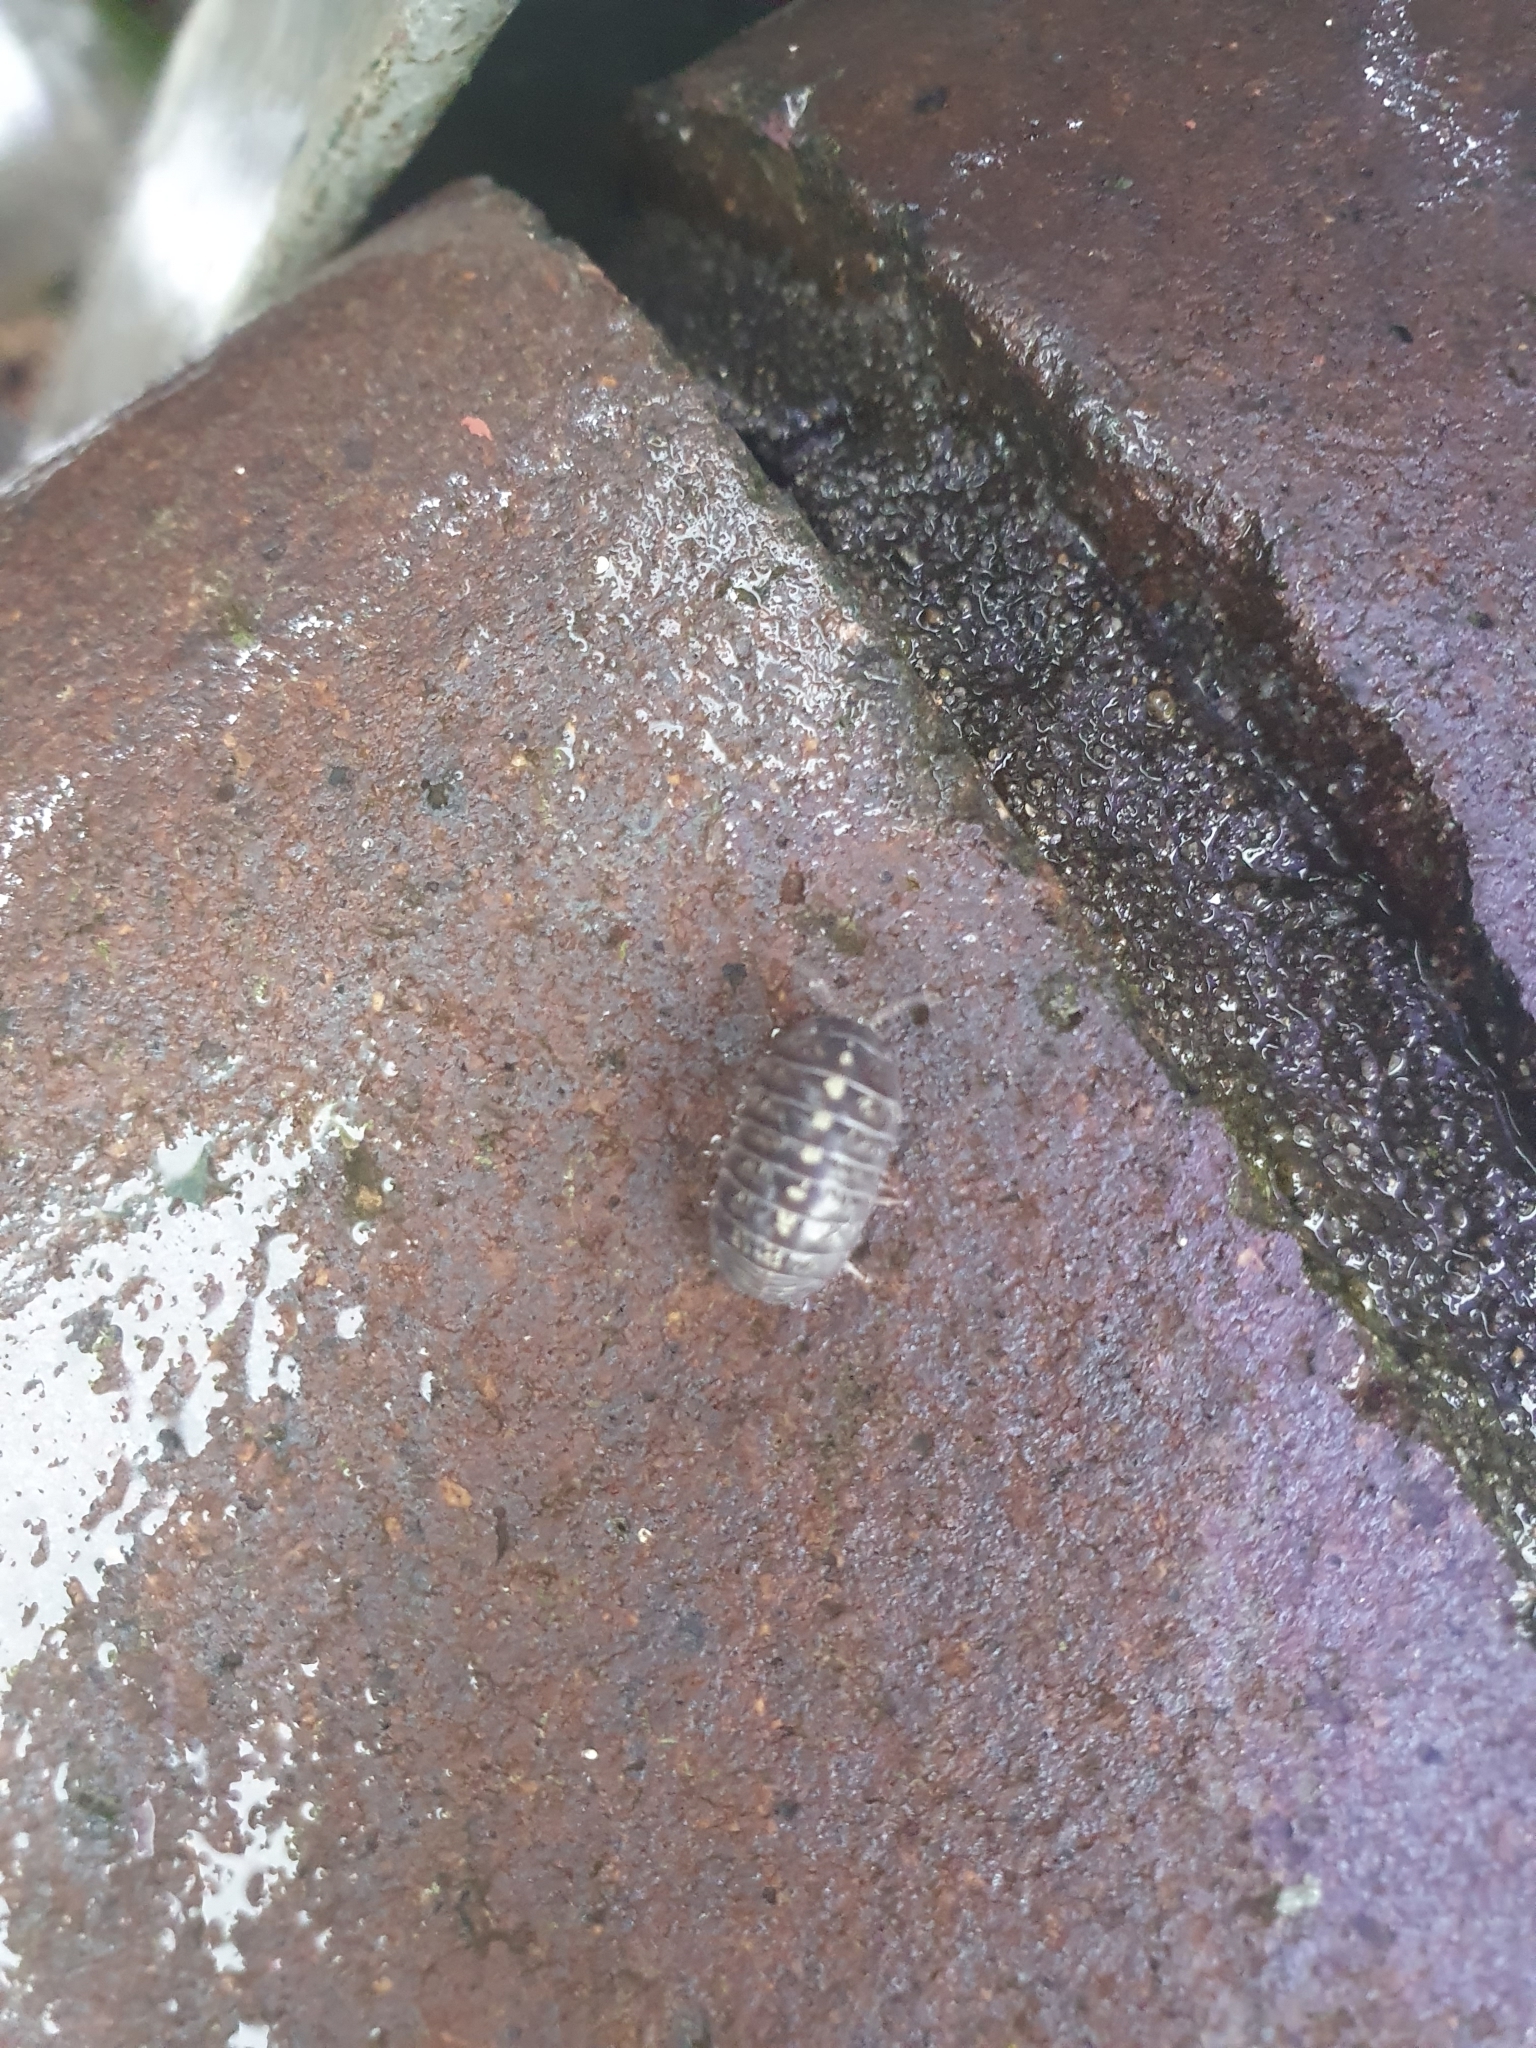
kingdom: Animalia
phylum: Arthropoda
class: Malacostraca
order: Isopoda
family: Armadillidiidae
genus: Armadillidium
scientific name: Armadillidium vulgare
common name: Common pill woodlouse
